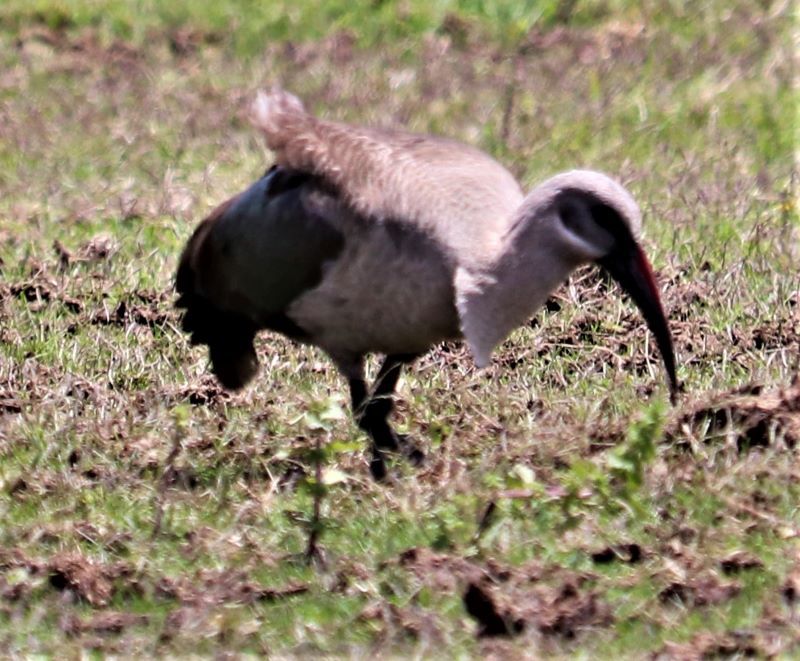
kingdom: Animalia
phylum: Chordata
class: Aves
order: Pelecaniformes
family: Threskiornithidae
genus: Bostrychia
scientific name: Bostrychia hagedash
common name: Hadada ibis
